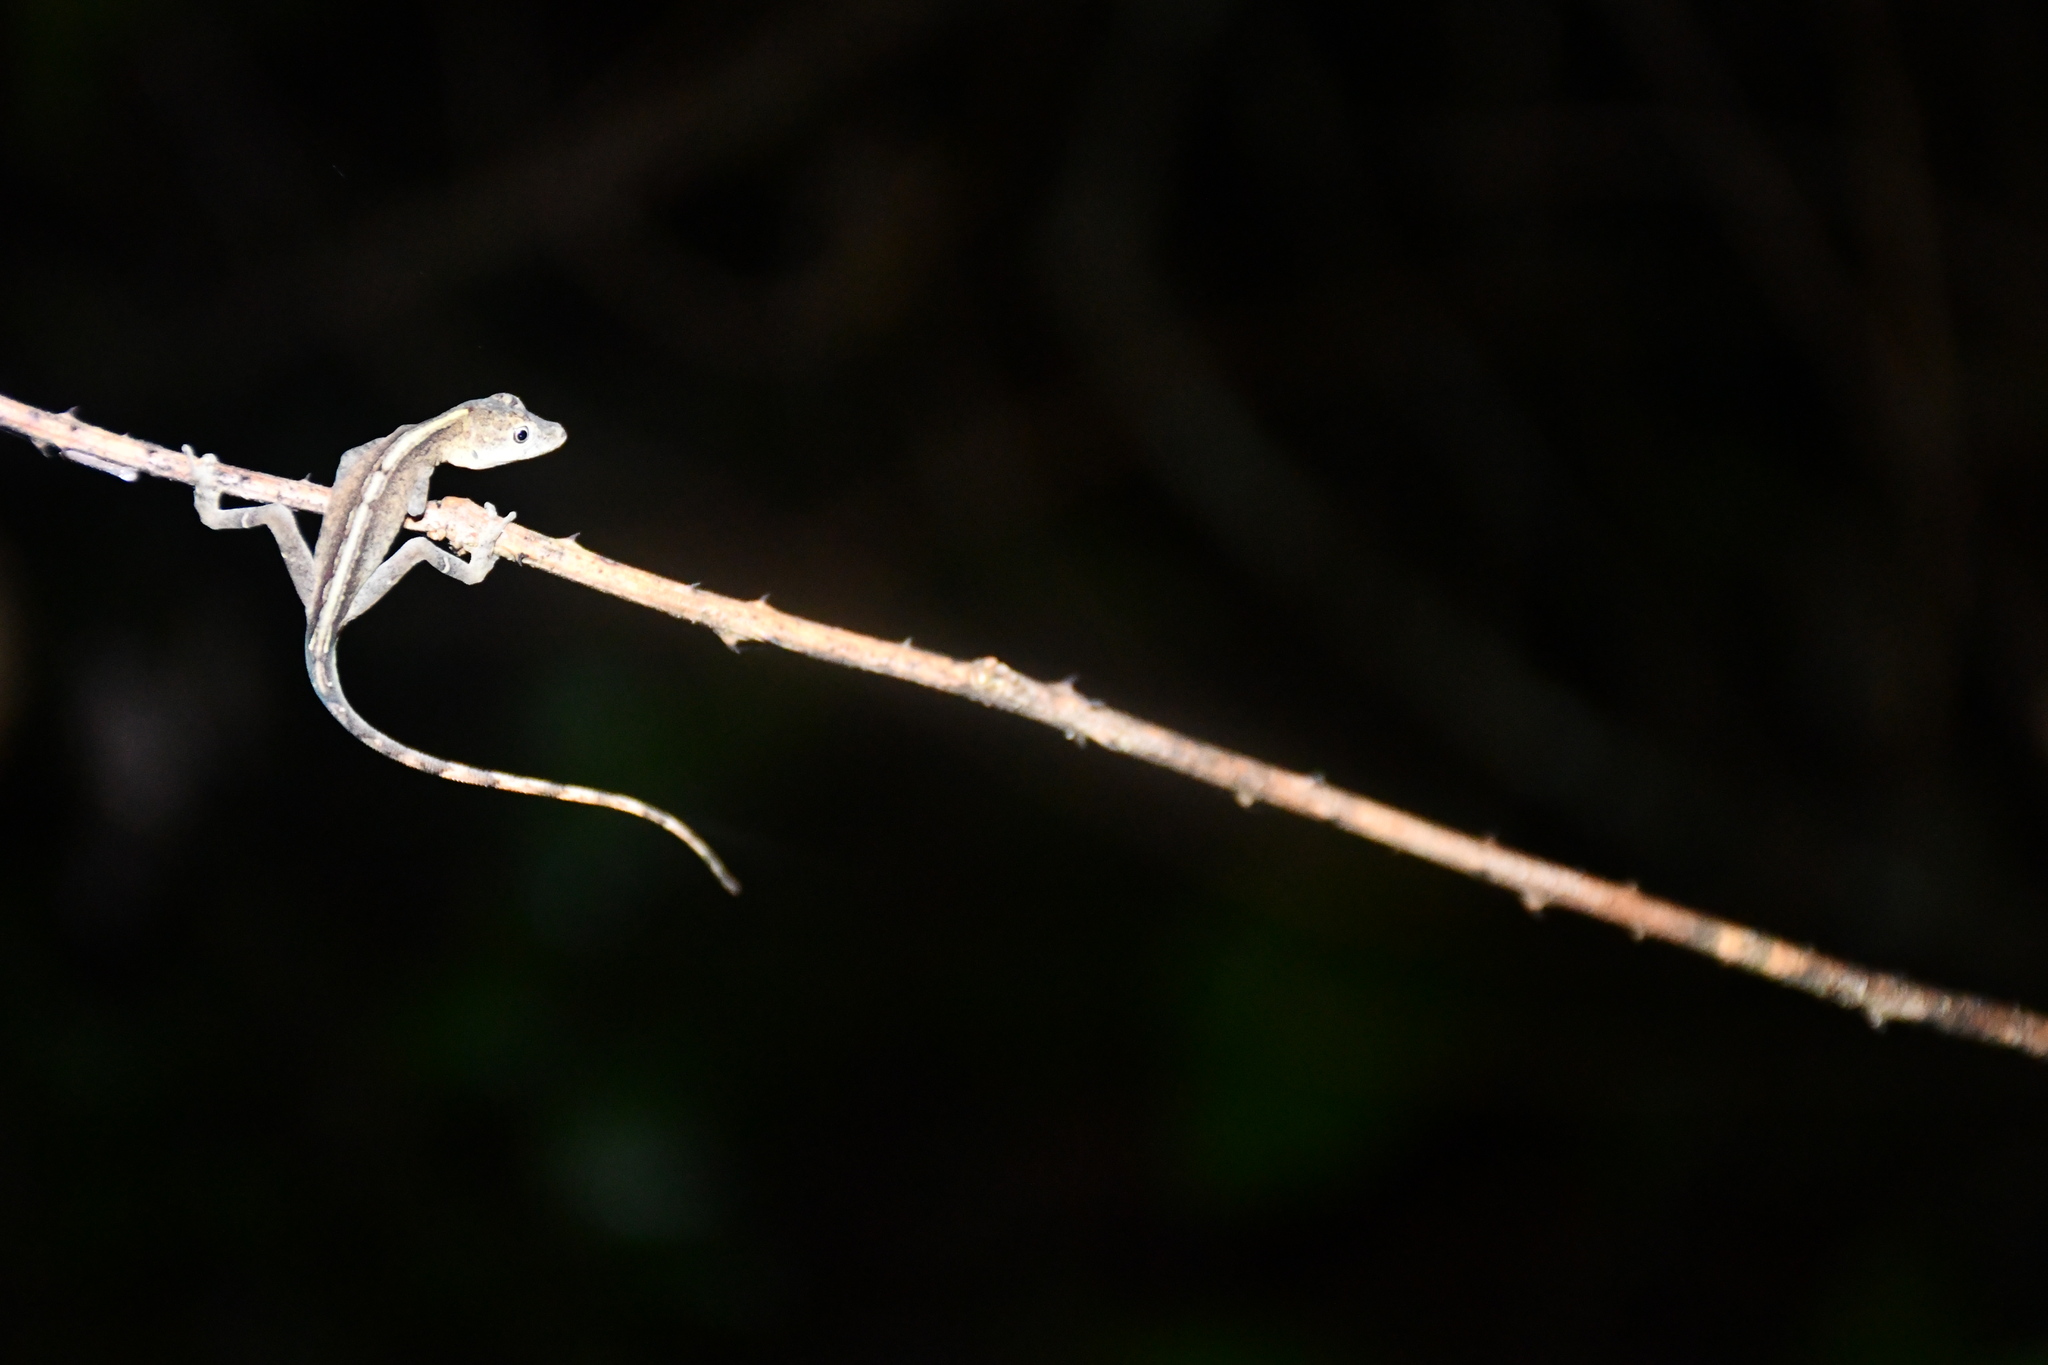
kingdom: Animalia
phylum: Chordata
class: Squamata
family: Dactyloidae
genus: Anolis
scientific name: Anolis fuscoauratus
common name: Brown-eared anole
